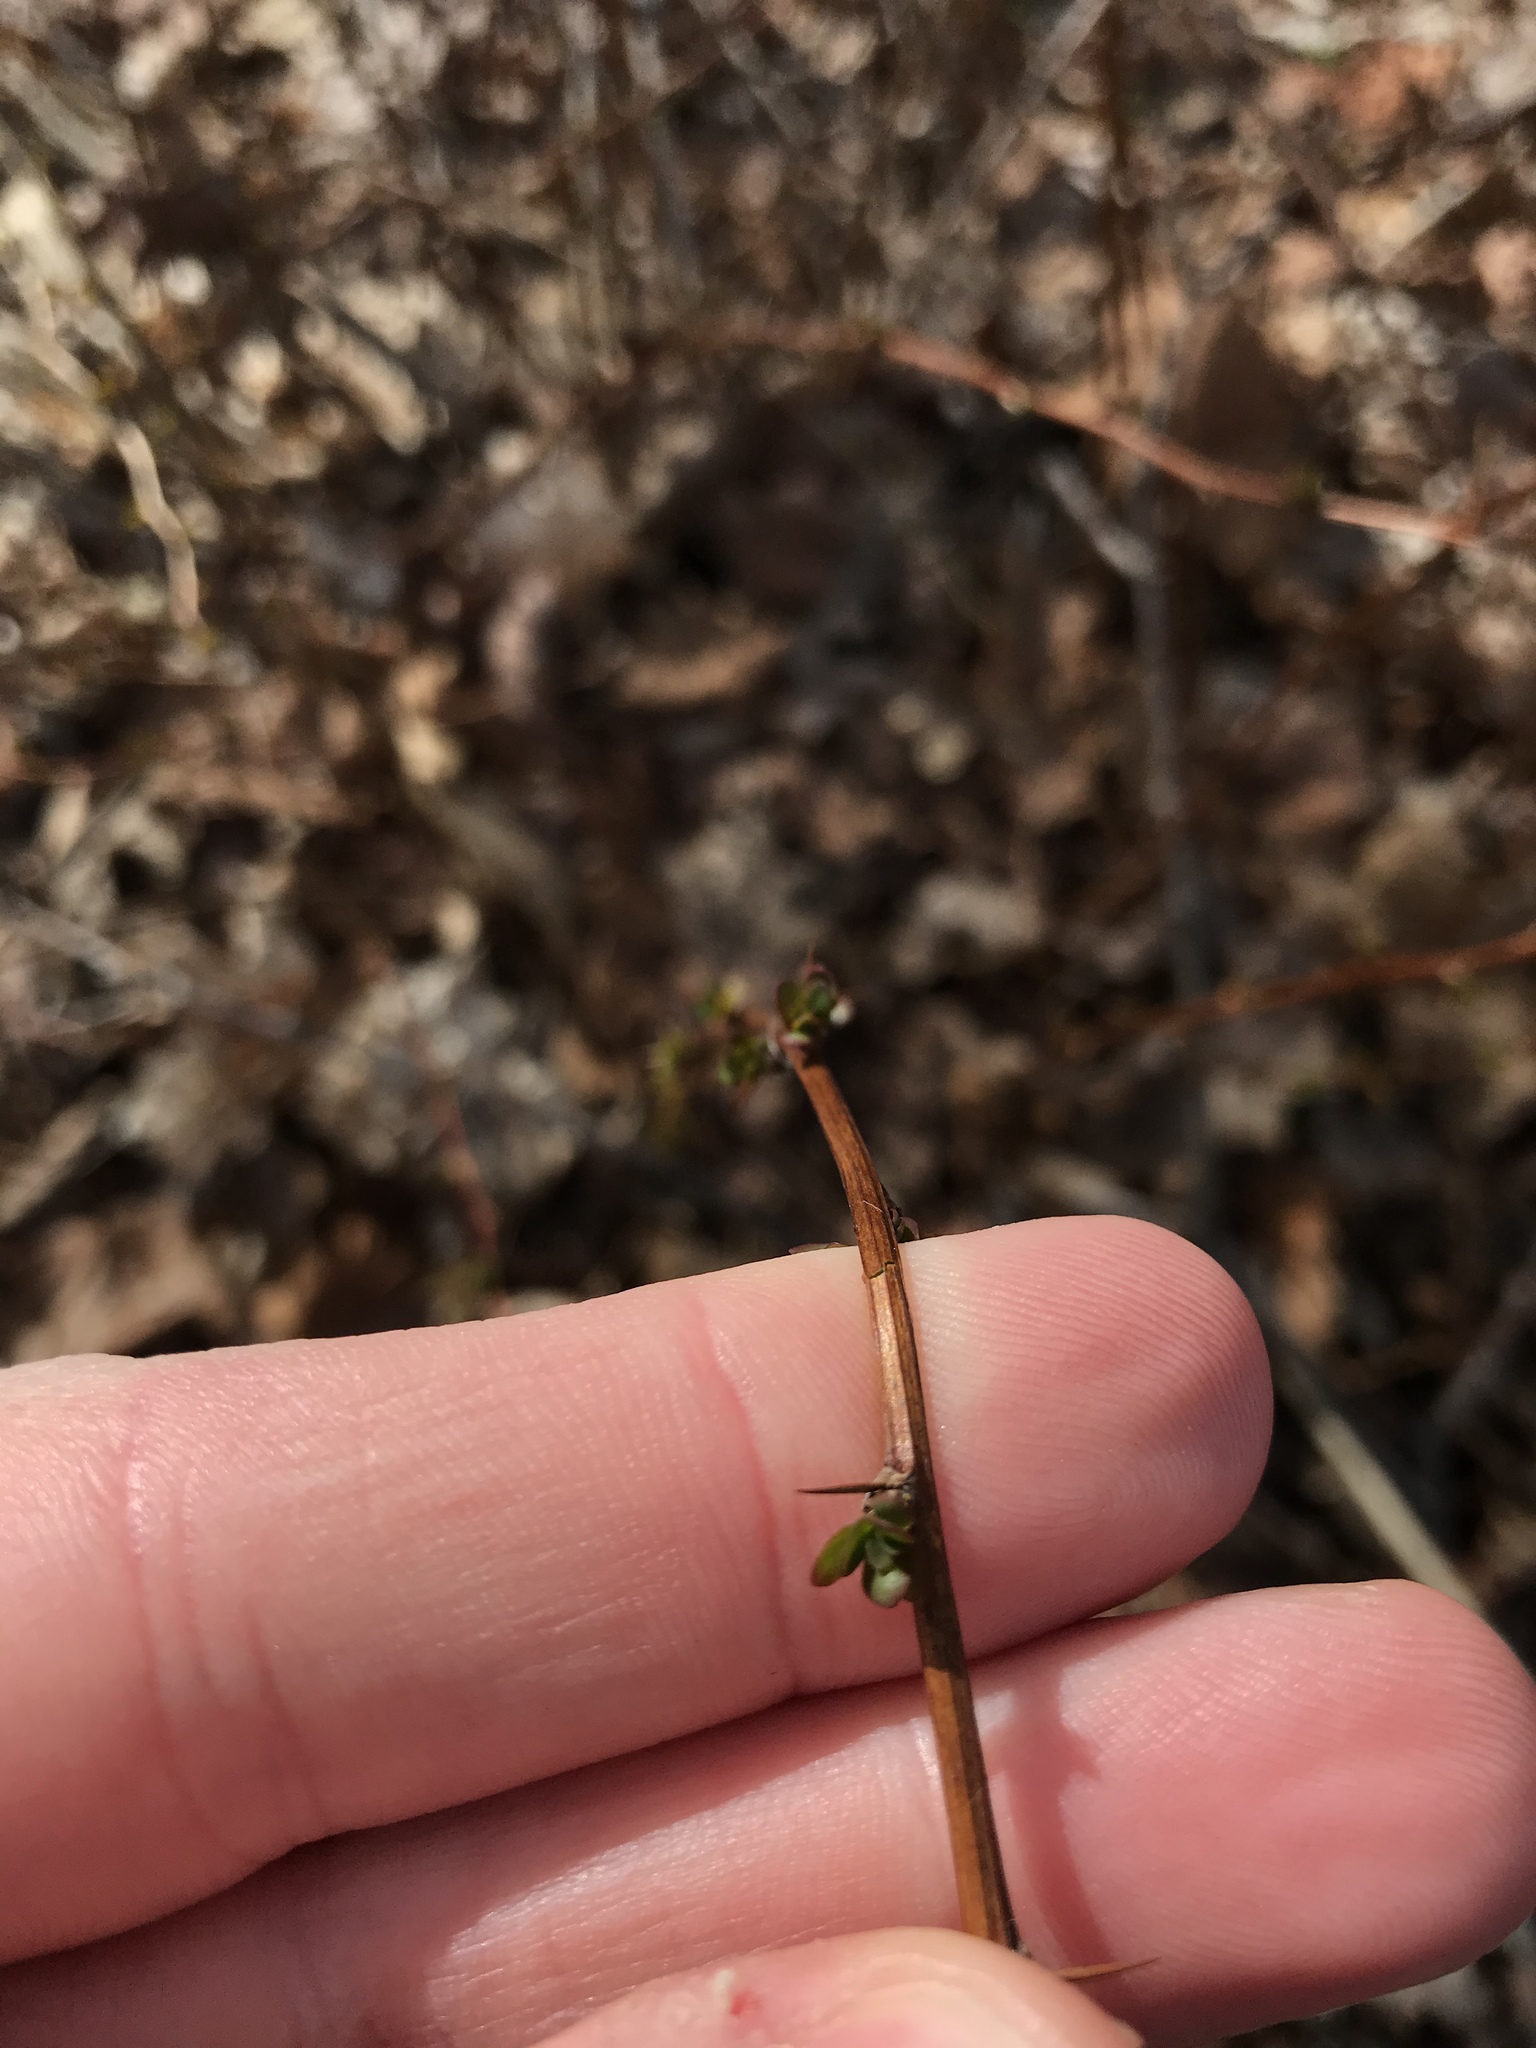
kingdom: Plantae
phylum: Tracheophyta
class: Magnoliopsida
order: Ranunculales
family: Berberidaceae
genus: Berberis
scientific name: Berberis thunbergii
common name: Japanese barberry
